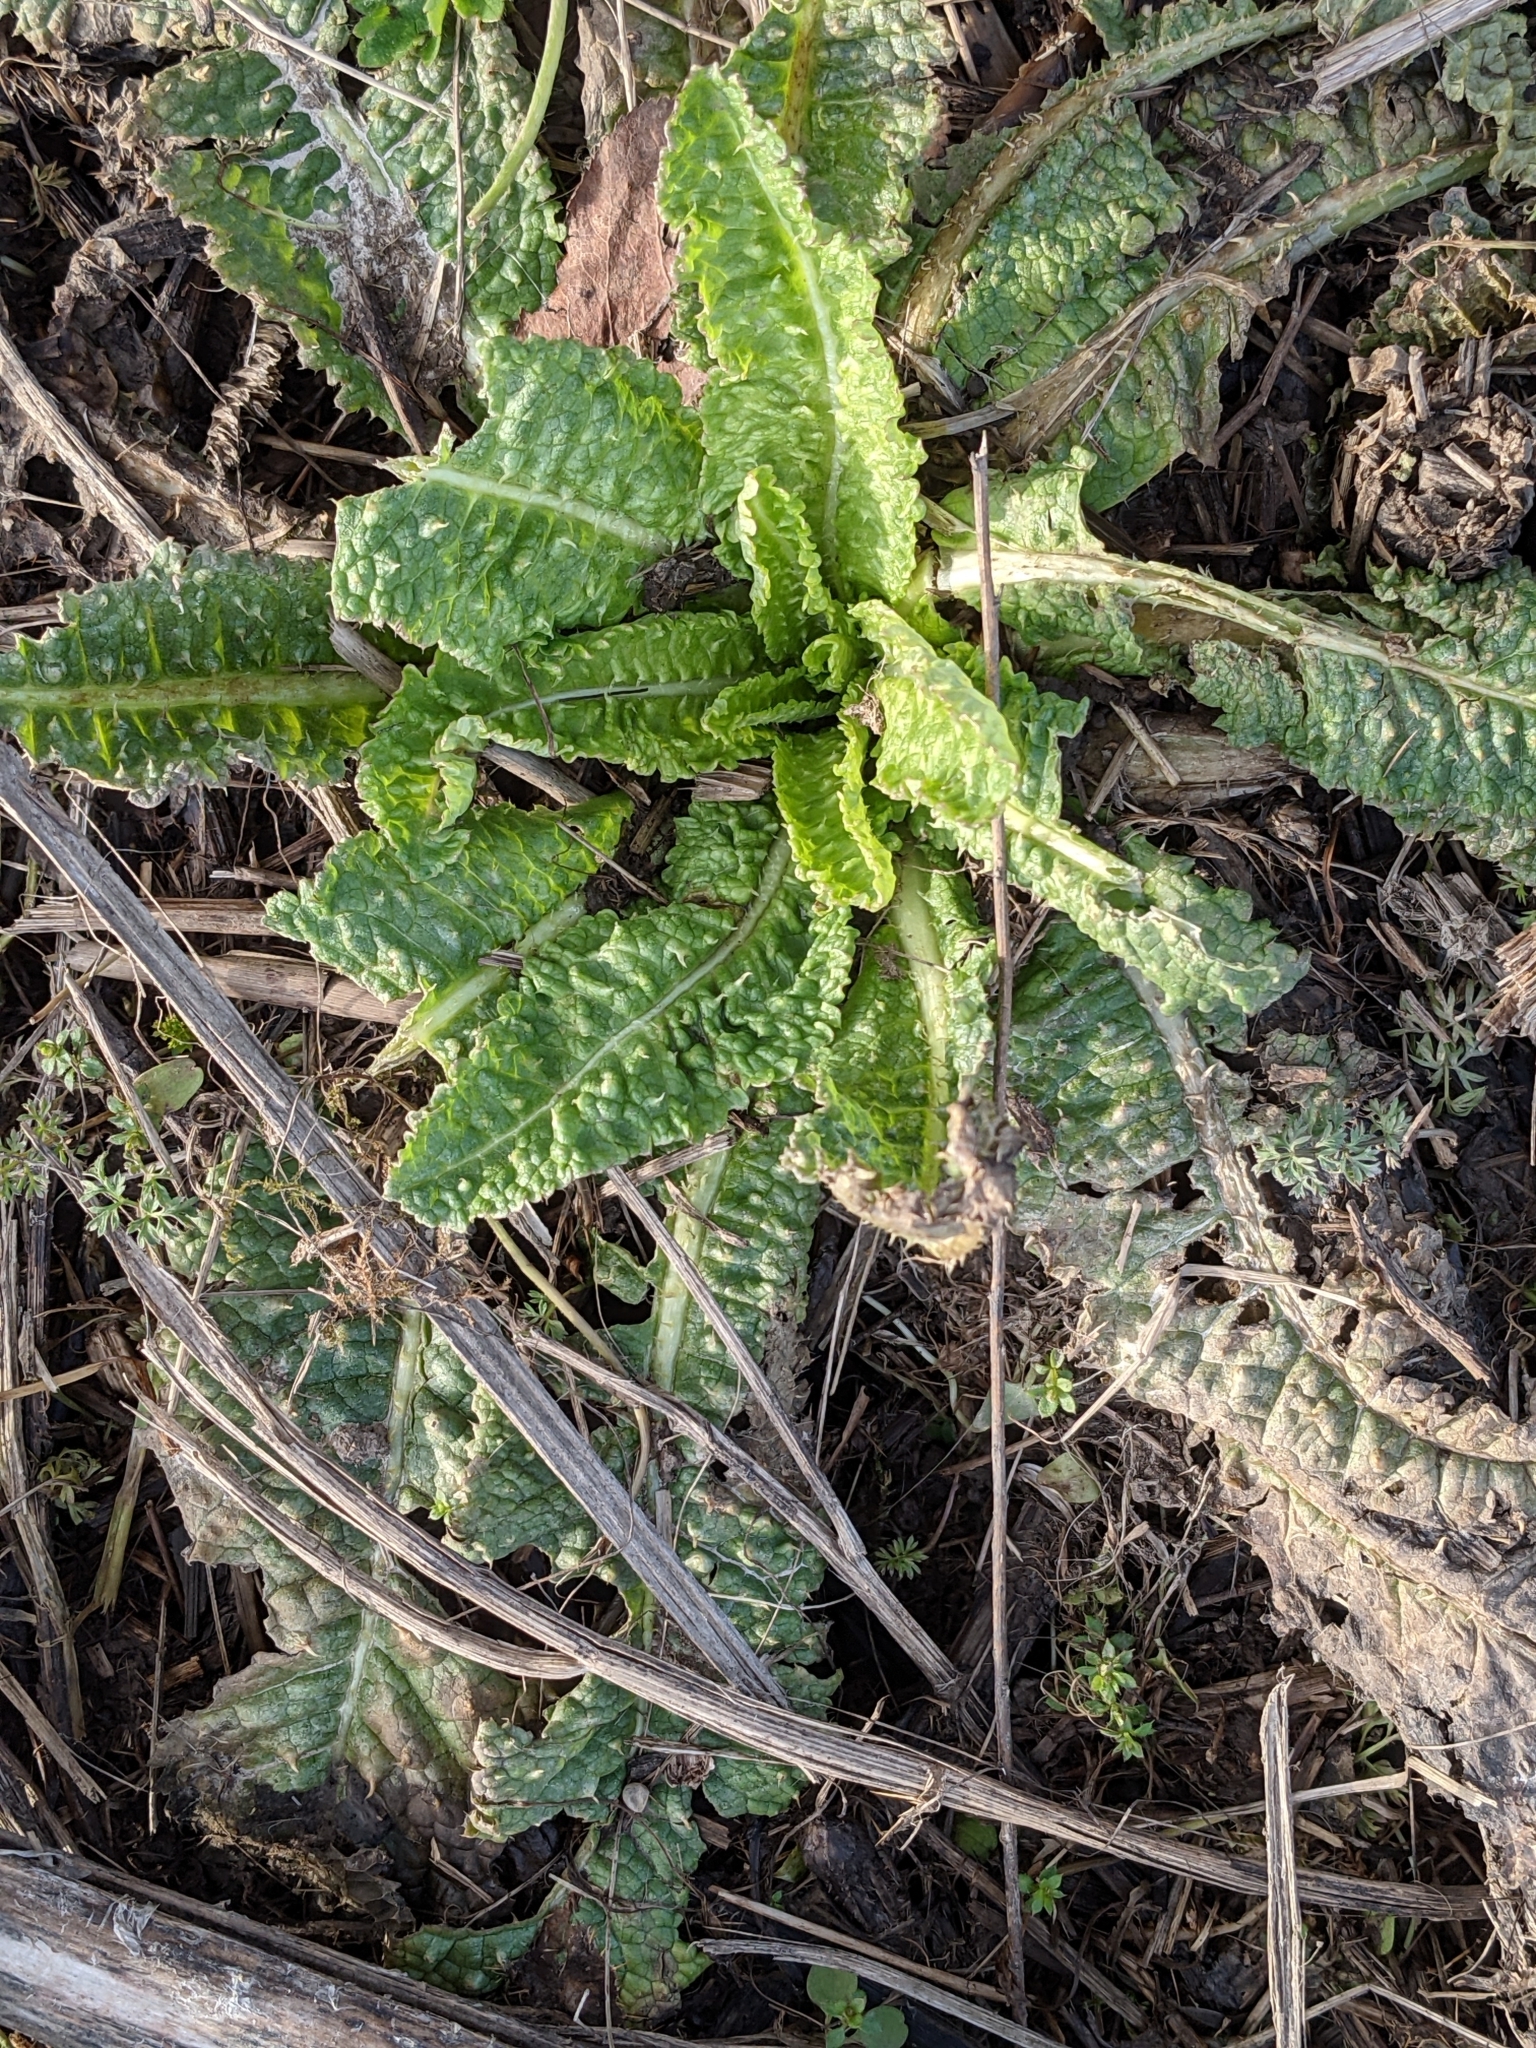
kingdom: Plantae
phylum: Tracheophyta
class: Magnoliopsida
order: Dipsacales
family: Caprifoliaceae
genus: Dipsacus
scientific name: Dipsacus fullonum
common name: Teasel
